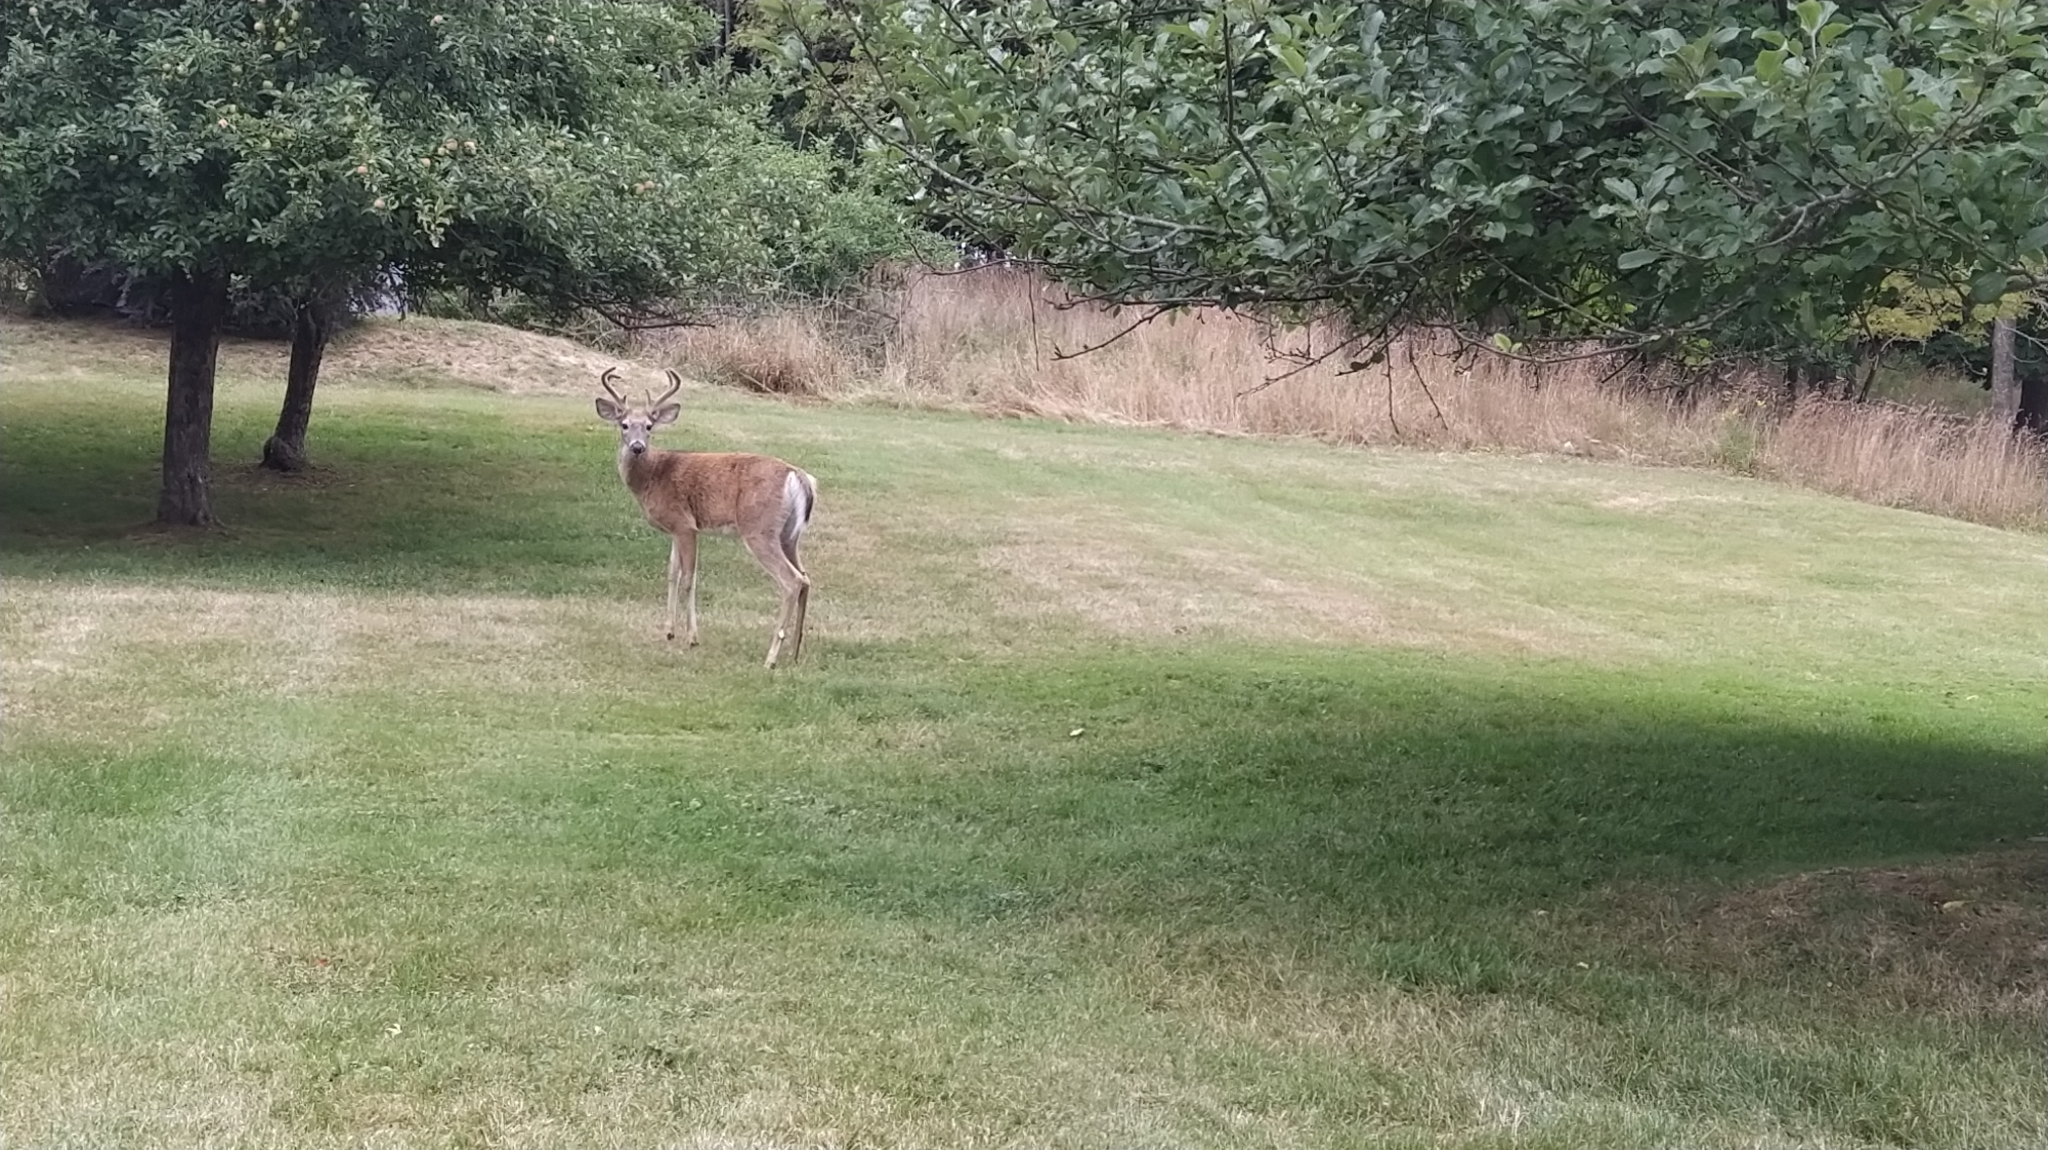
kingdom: Animalia
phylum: Chordata
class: Mammalia
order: Artiodactyla
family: Cervidae
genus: Odocoileus
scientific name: Odocoileus virginianus
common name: White-tailed deer
